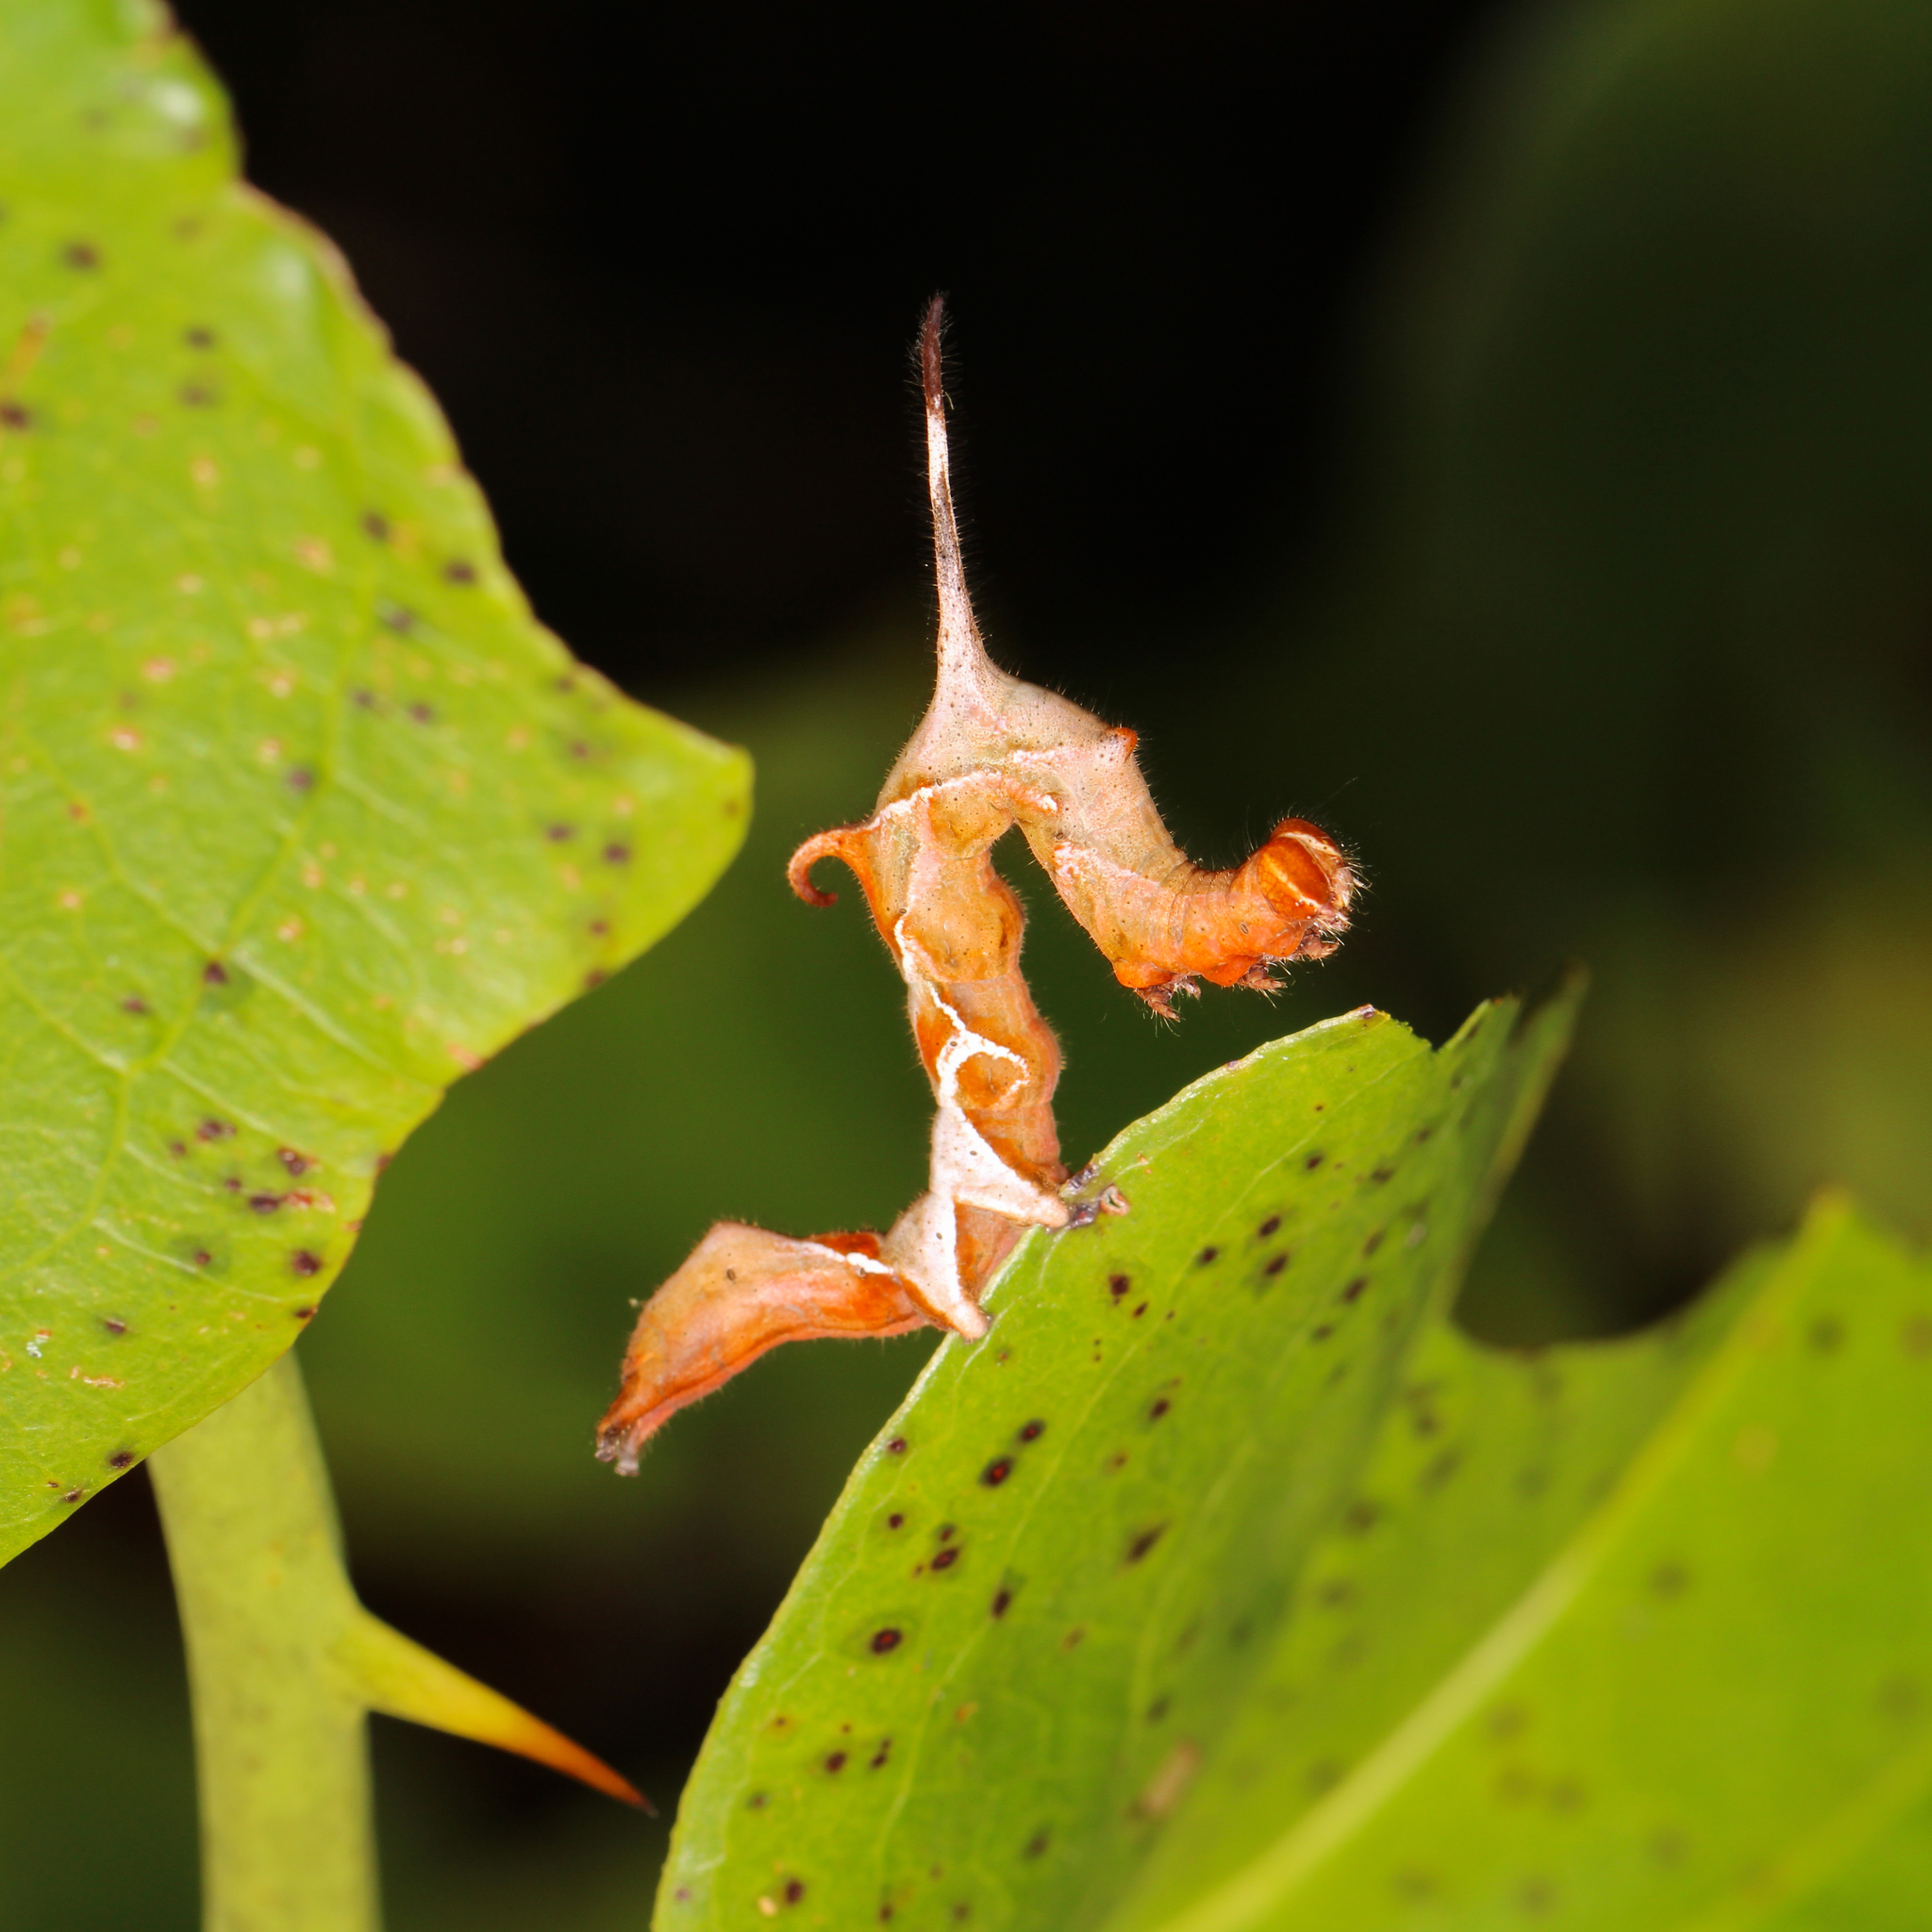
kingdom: Animalia
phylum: Arthropoda
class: Insecta
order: Lepidoptera
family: Erebidae
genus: Phyprosopus
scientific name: Phyprosopus callitrichoides
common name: Curved-lined owlet
